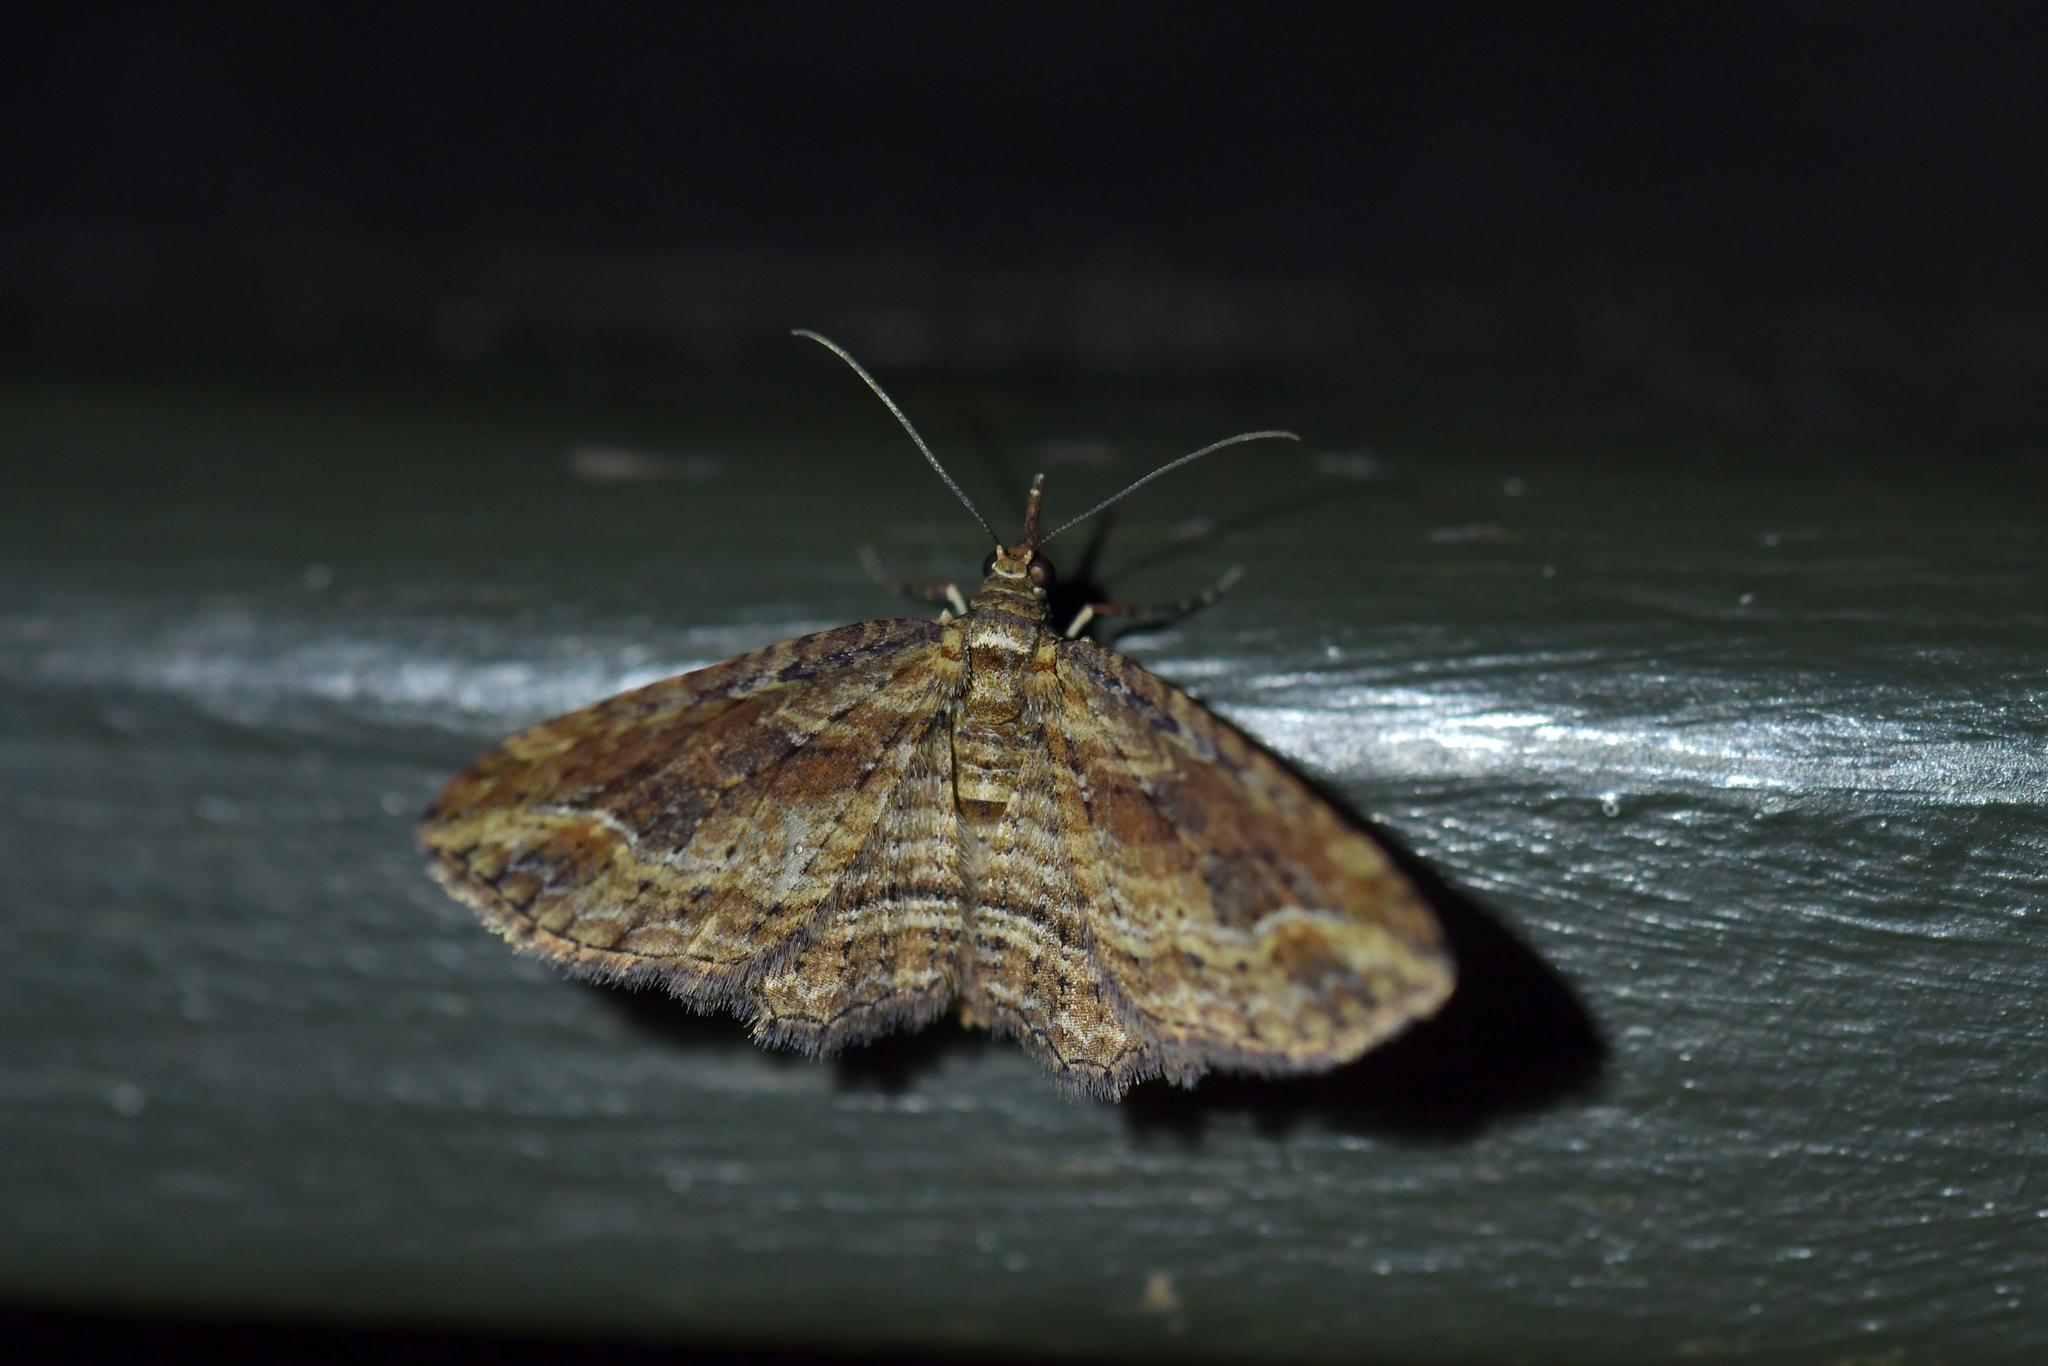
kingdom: Animalia
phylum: Arthropoda
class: Insecta
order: Lepidoptera
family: Geometridae
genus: Chloroclystis
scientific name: Chloroclystis filata
